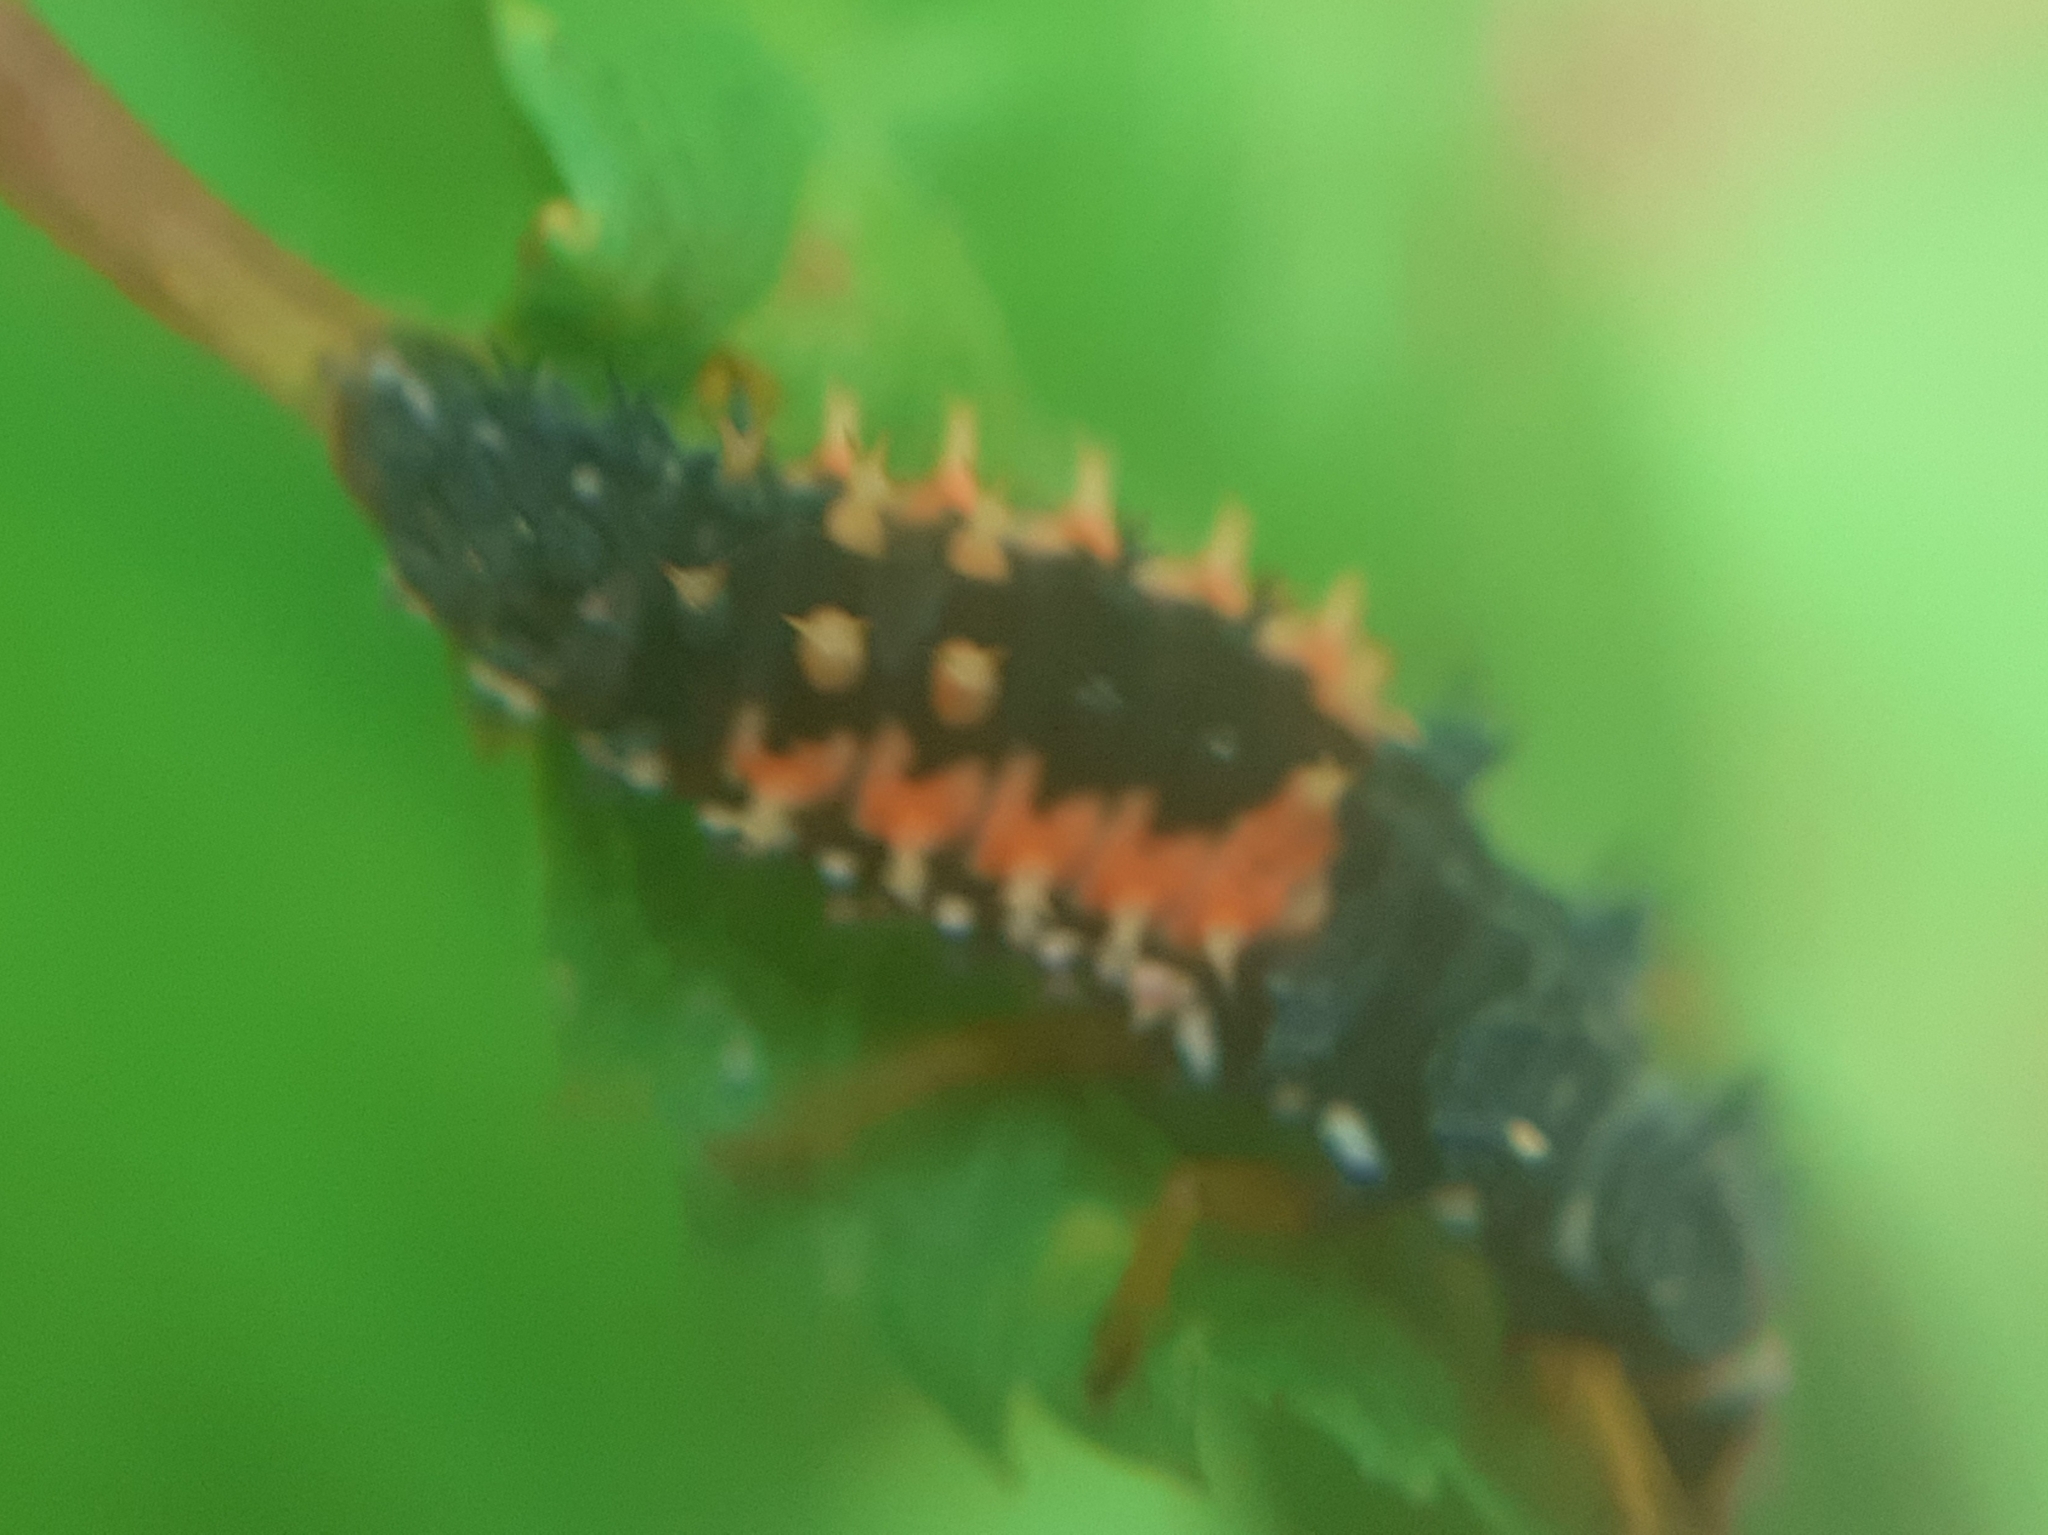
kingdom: Animalia
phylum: Arthropoda
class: Insecta
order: Coleoptera
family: Coccinellidae
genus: Harmonia
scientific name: Harmonia axyridis
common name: Harlequin ladybird
